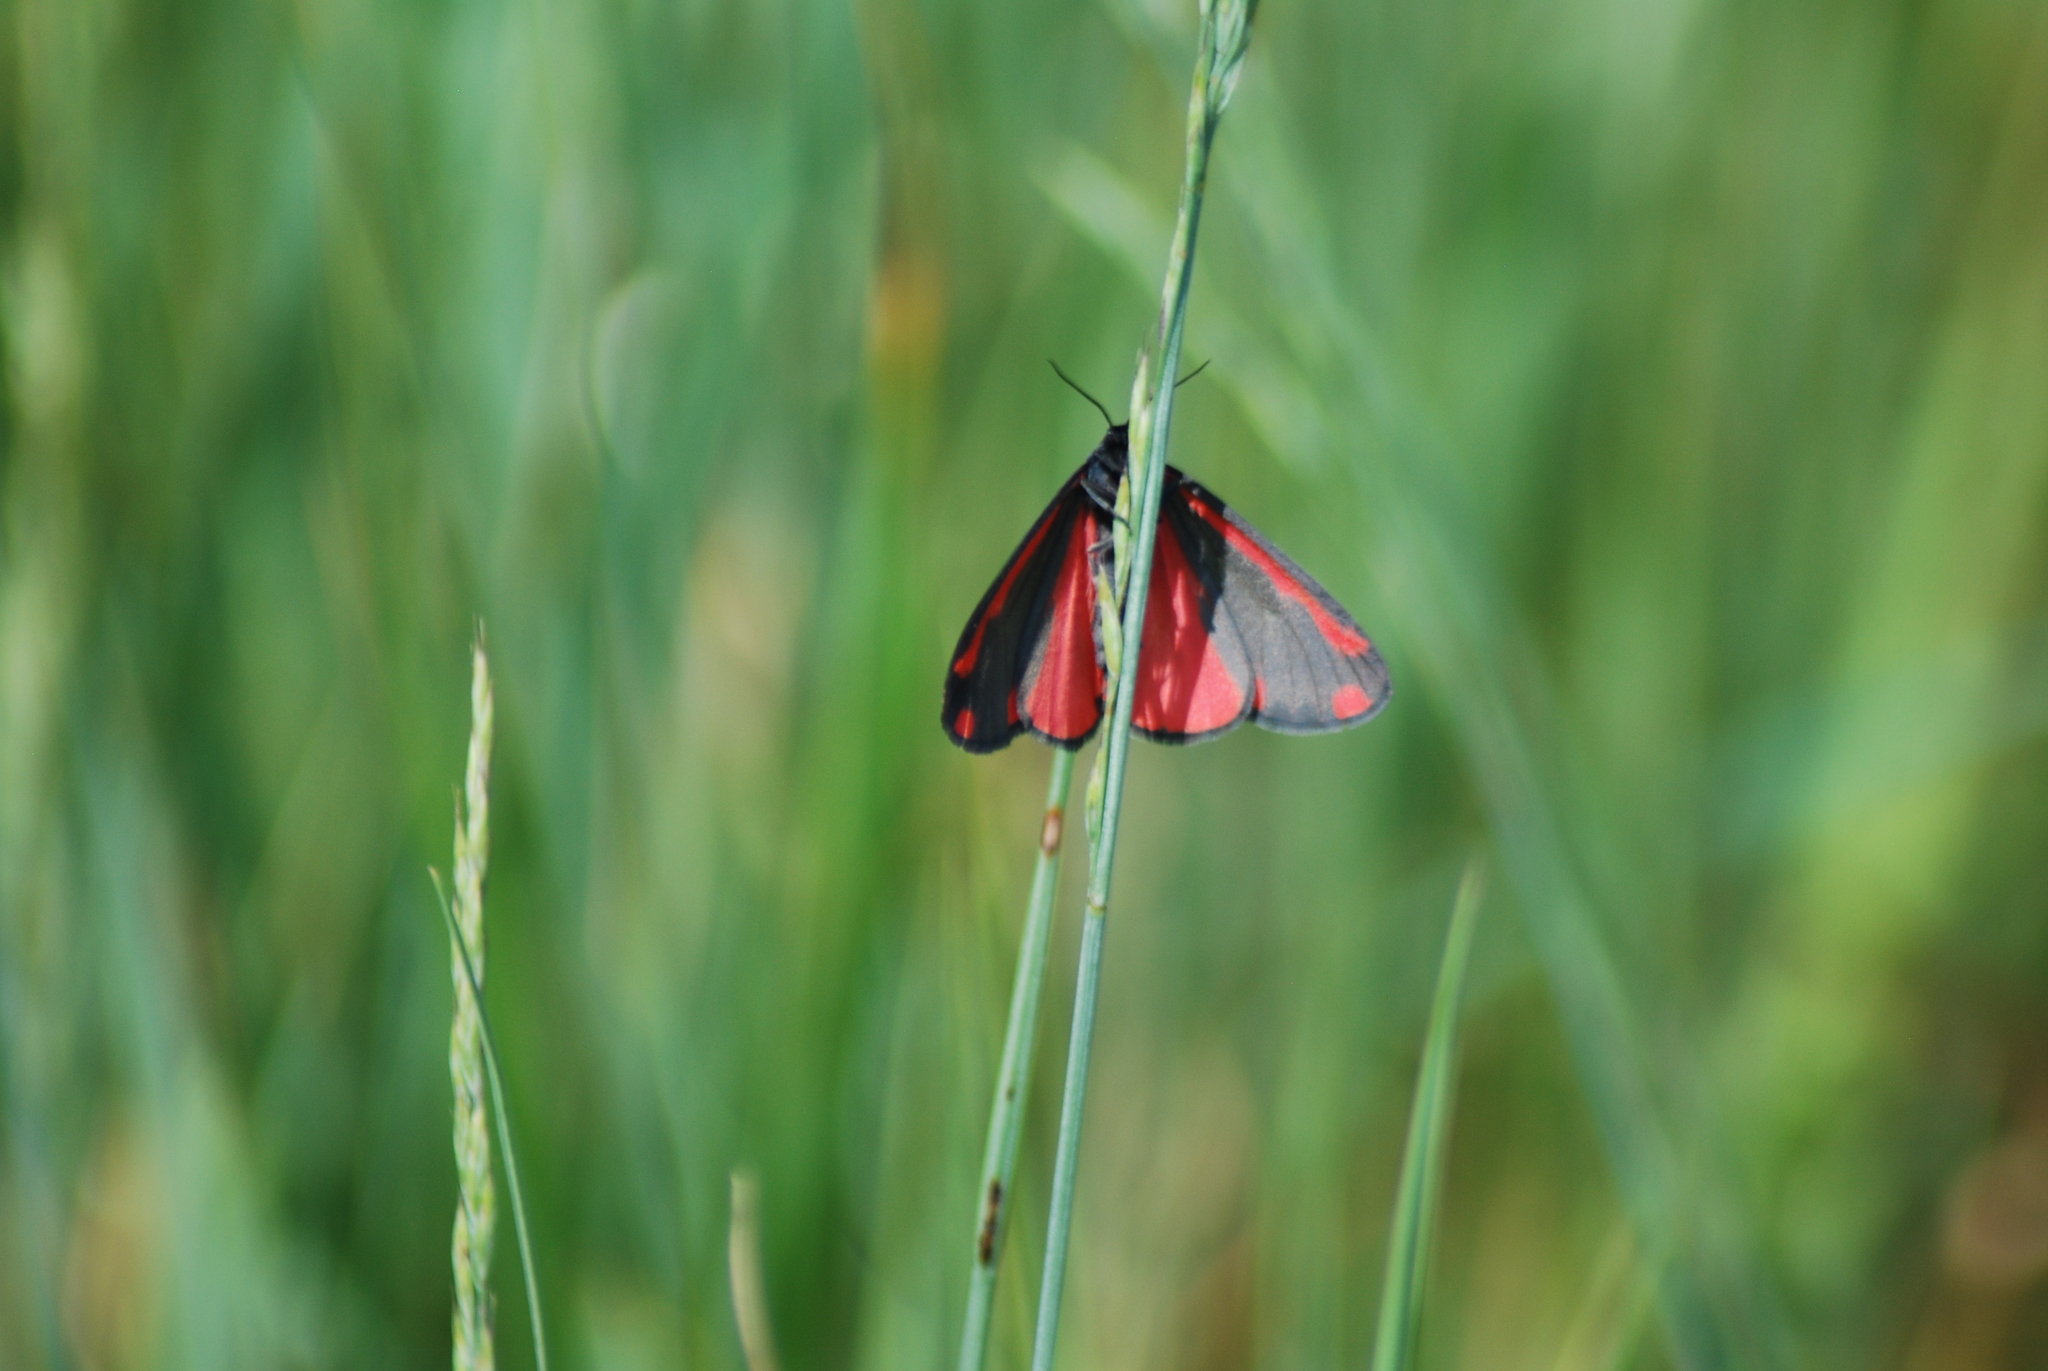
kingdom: Animalia
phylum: Arthropoda
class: Insecta
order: Lepidoptera
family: Erebidae
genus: Tyria
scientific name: Tyria jacobaeae
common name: Cinnabar
